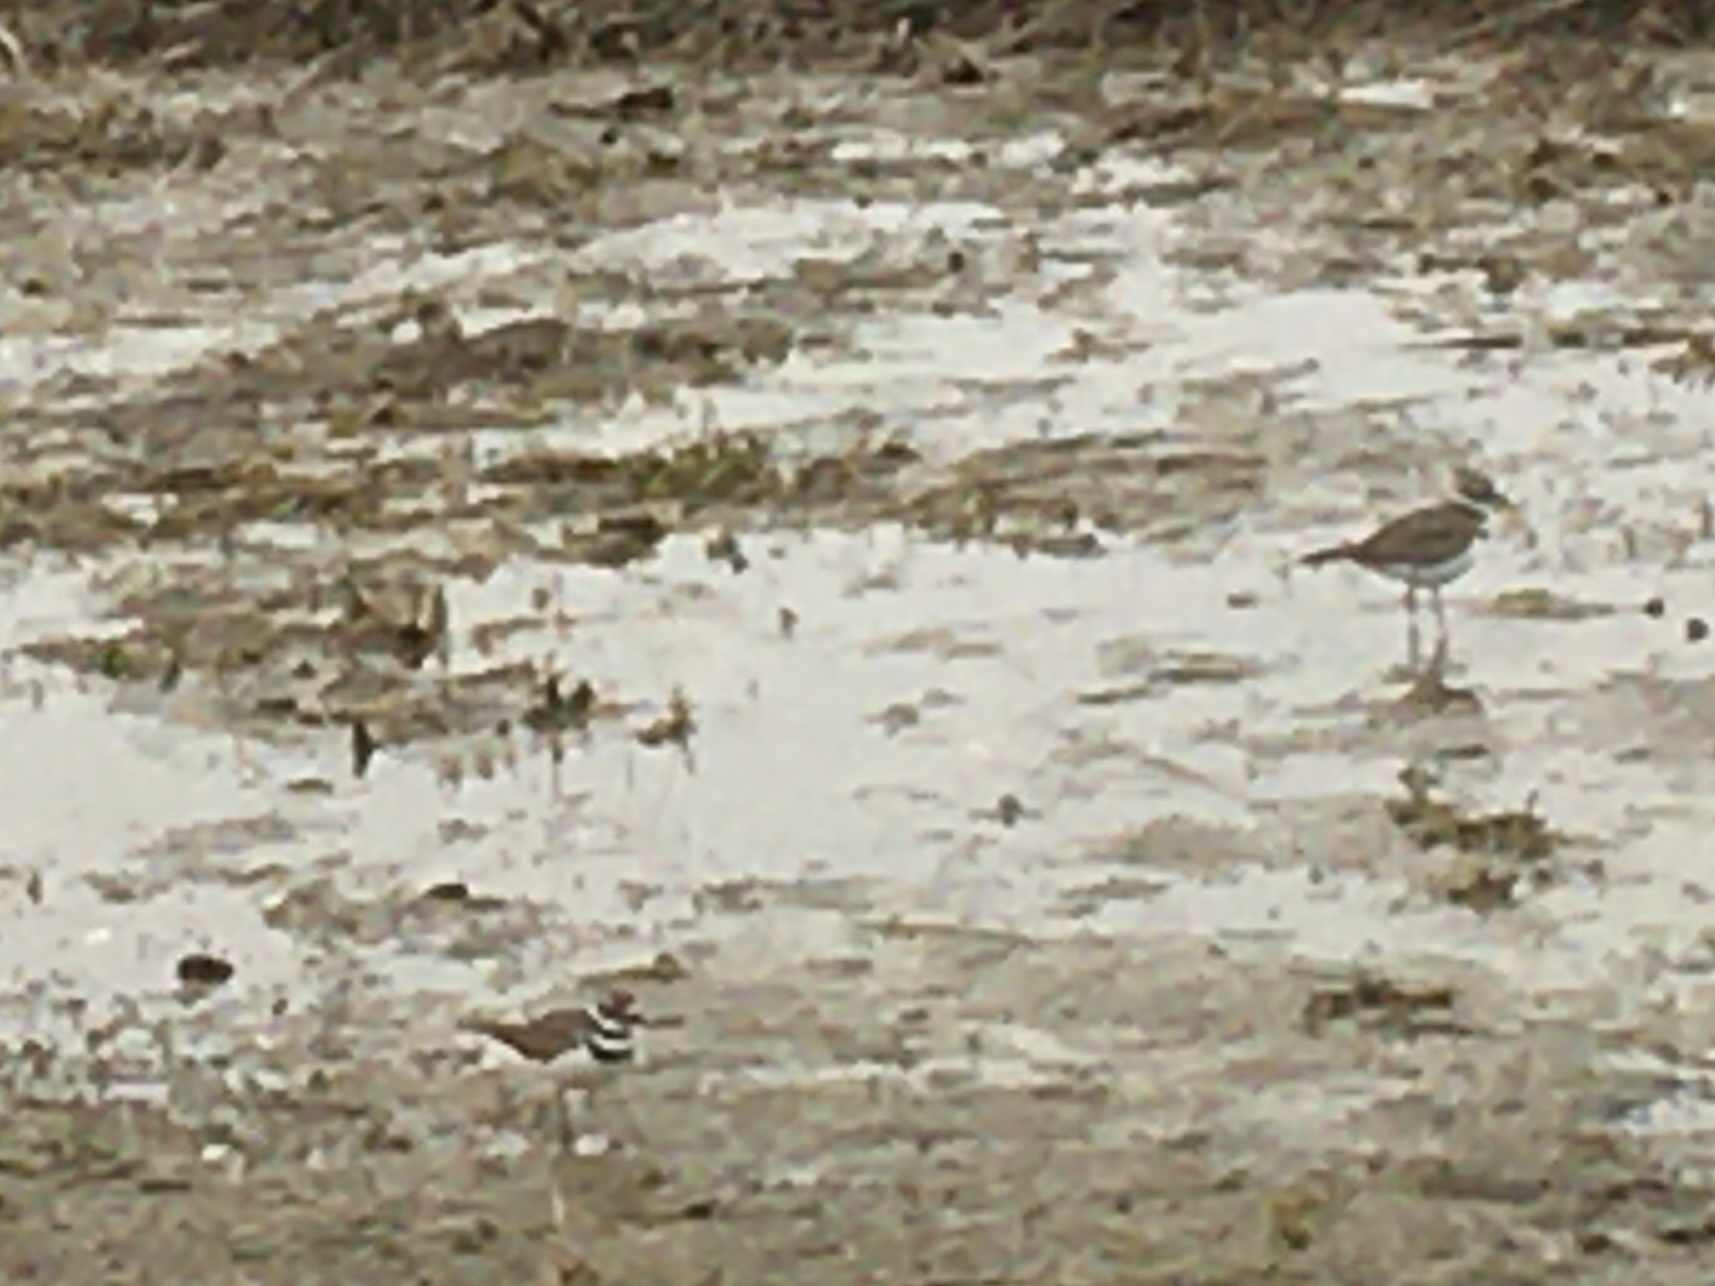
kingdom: Animalia
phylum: Chordata
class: Aves
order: Charadriiformes
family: Charadriidae
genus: Charadrius
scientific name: Charadrius vociferus
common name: Killdeer
